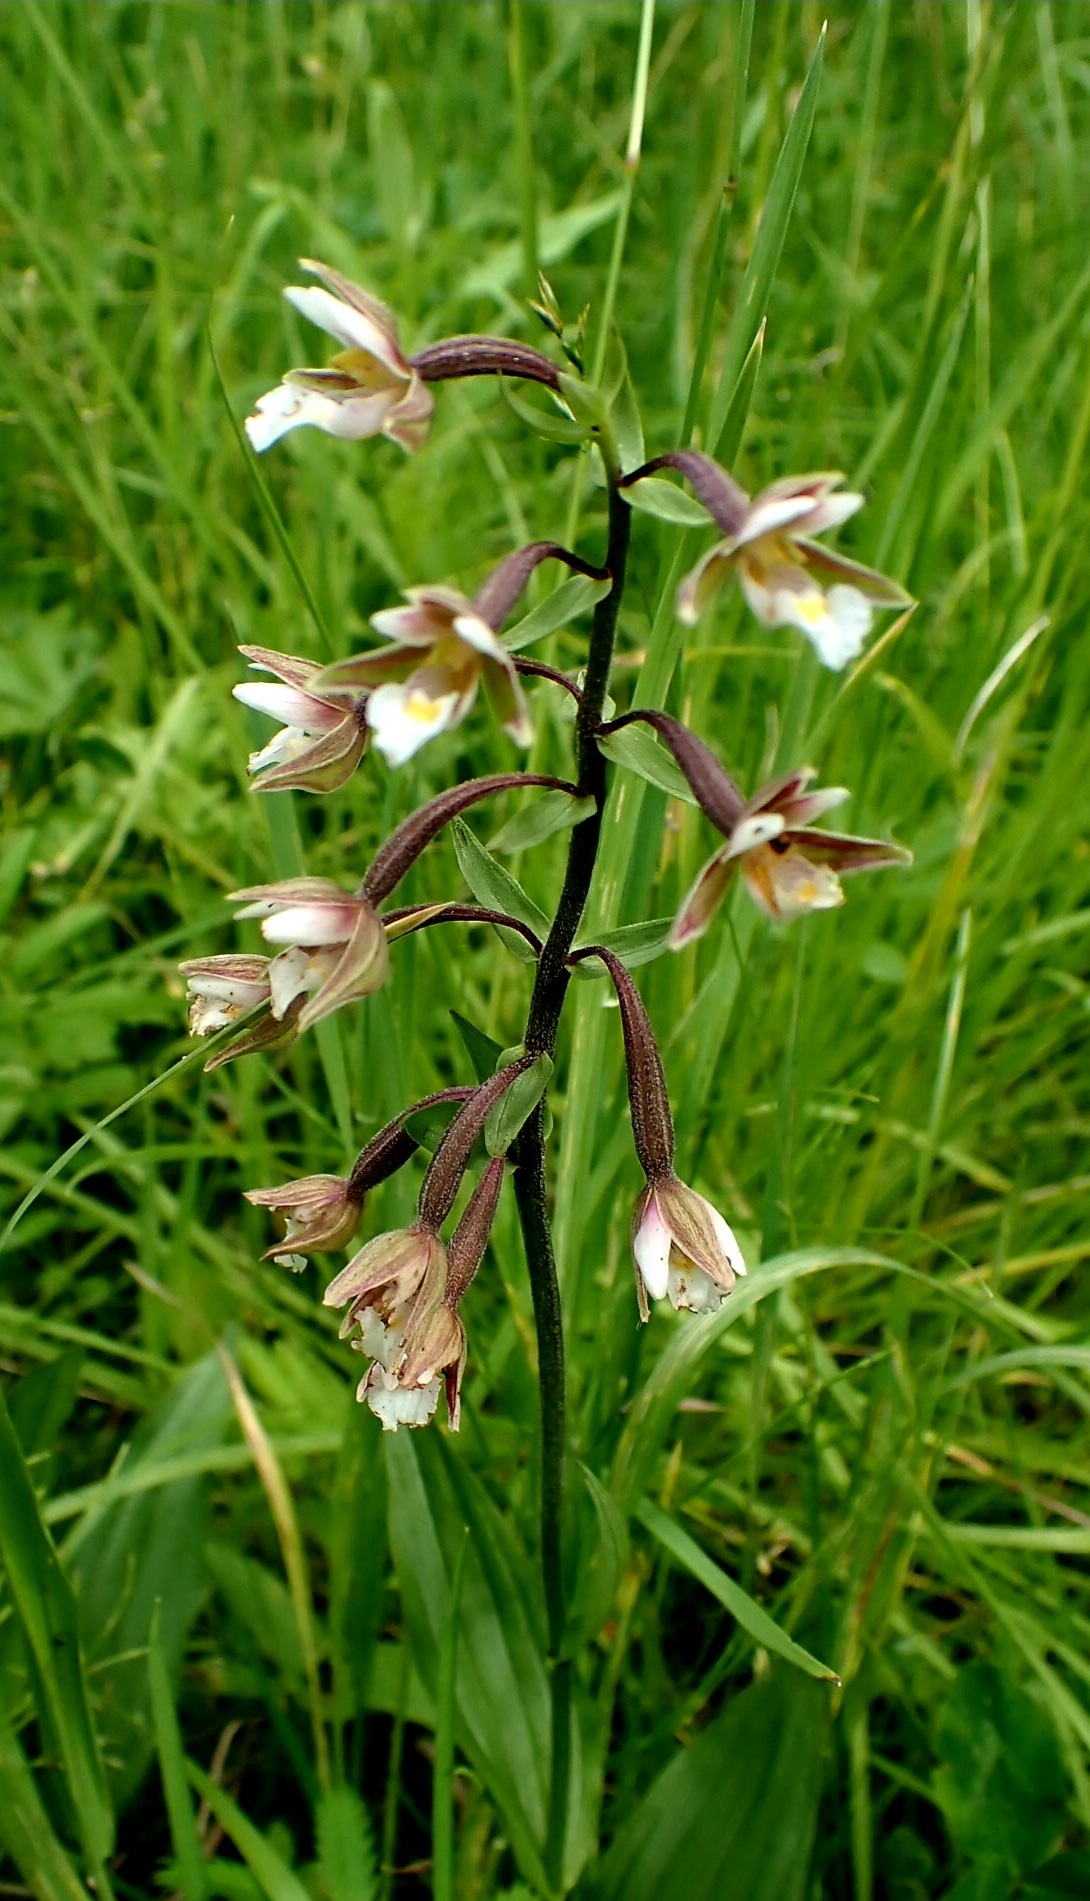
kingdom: Plantae
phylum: Tracheophyta
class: Liliopsida
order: Asparagales
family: Orchidaceae
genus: Epipactis
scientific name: Epipactis palustris
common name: Marsh helleborine
